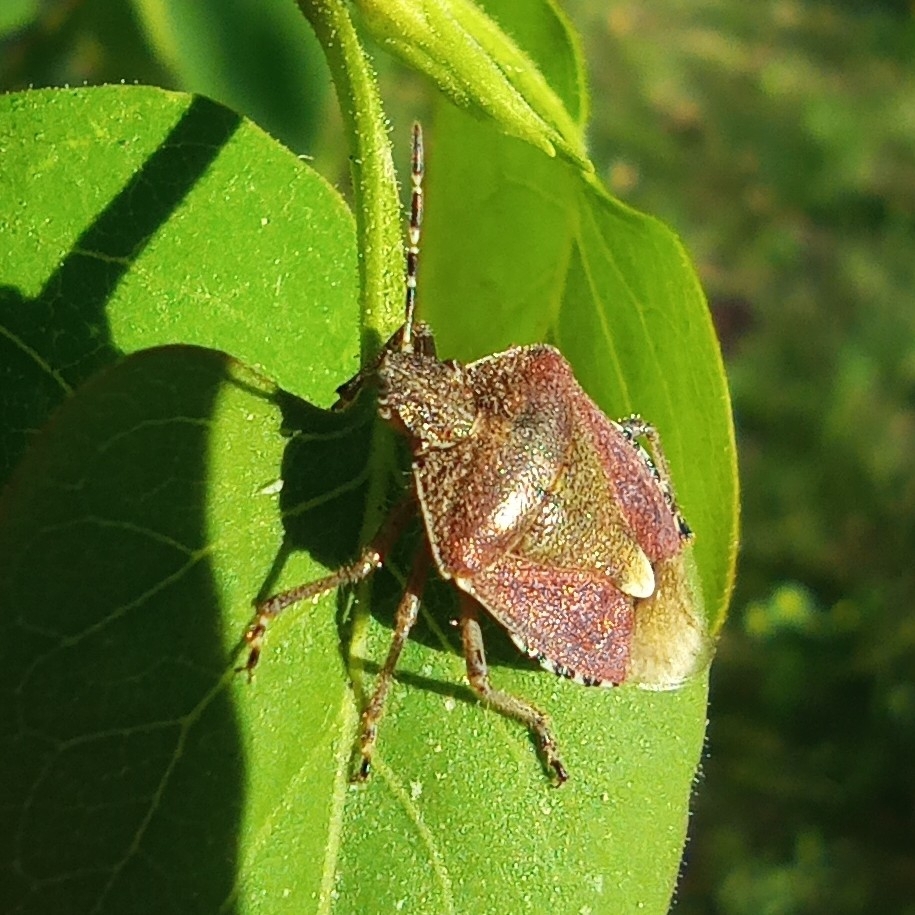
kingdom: Animalia
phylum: Arthropoda
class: Insecta
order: Hemiptera
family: Pentatomidae
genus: Dolycoris
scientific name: Dolycoris baccarum
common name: Sloe bug
